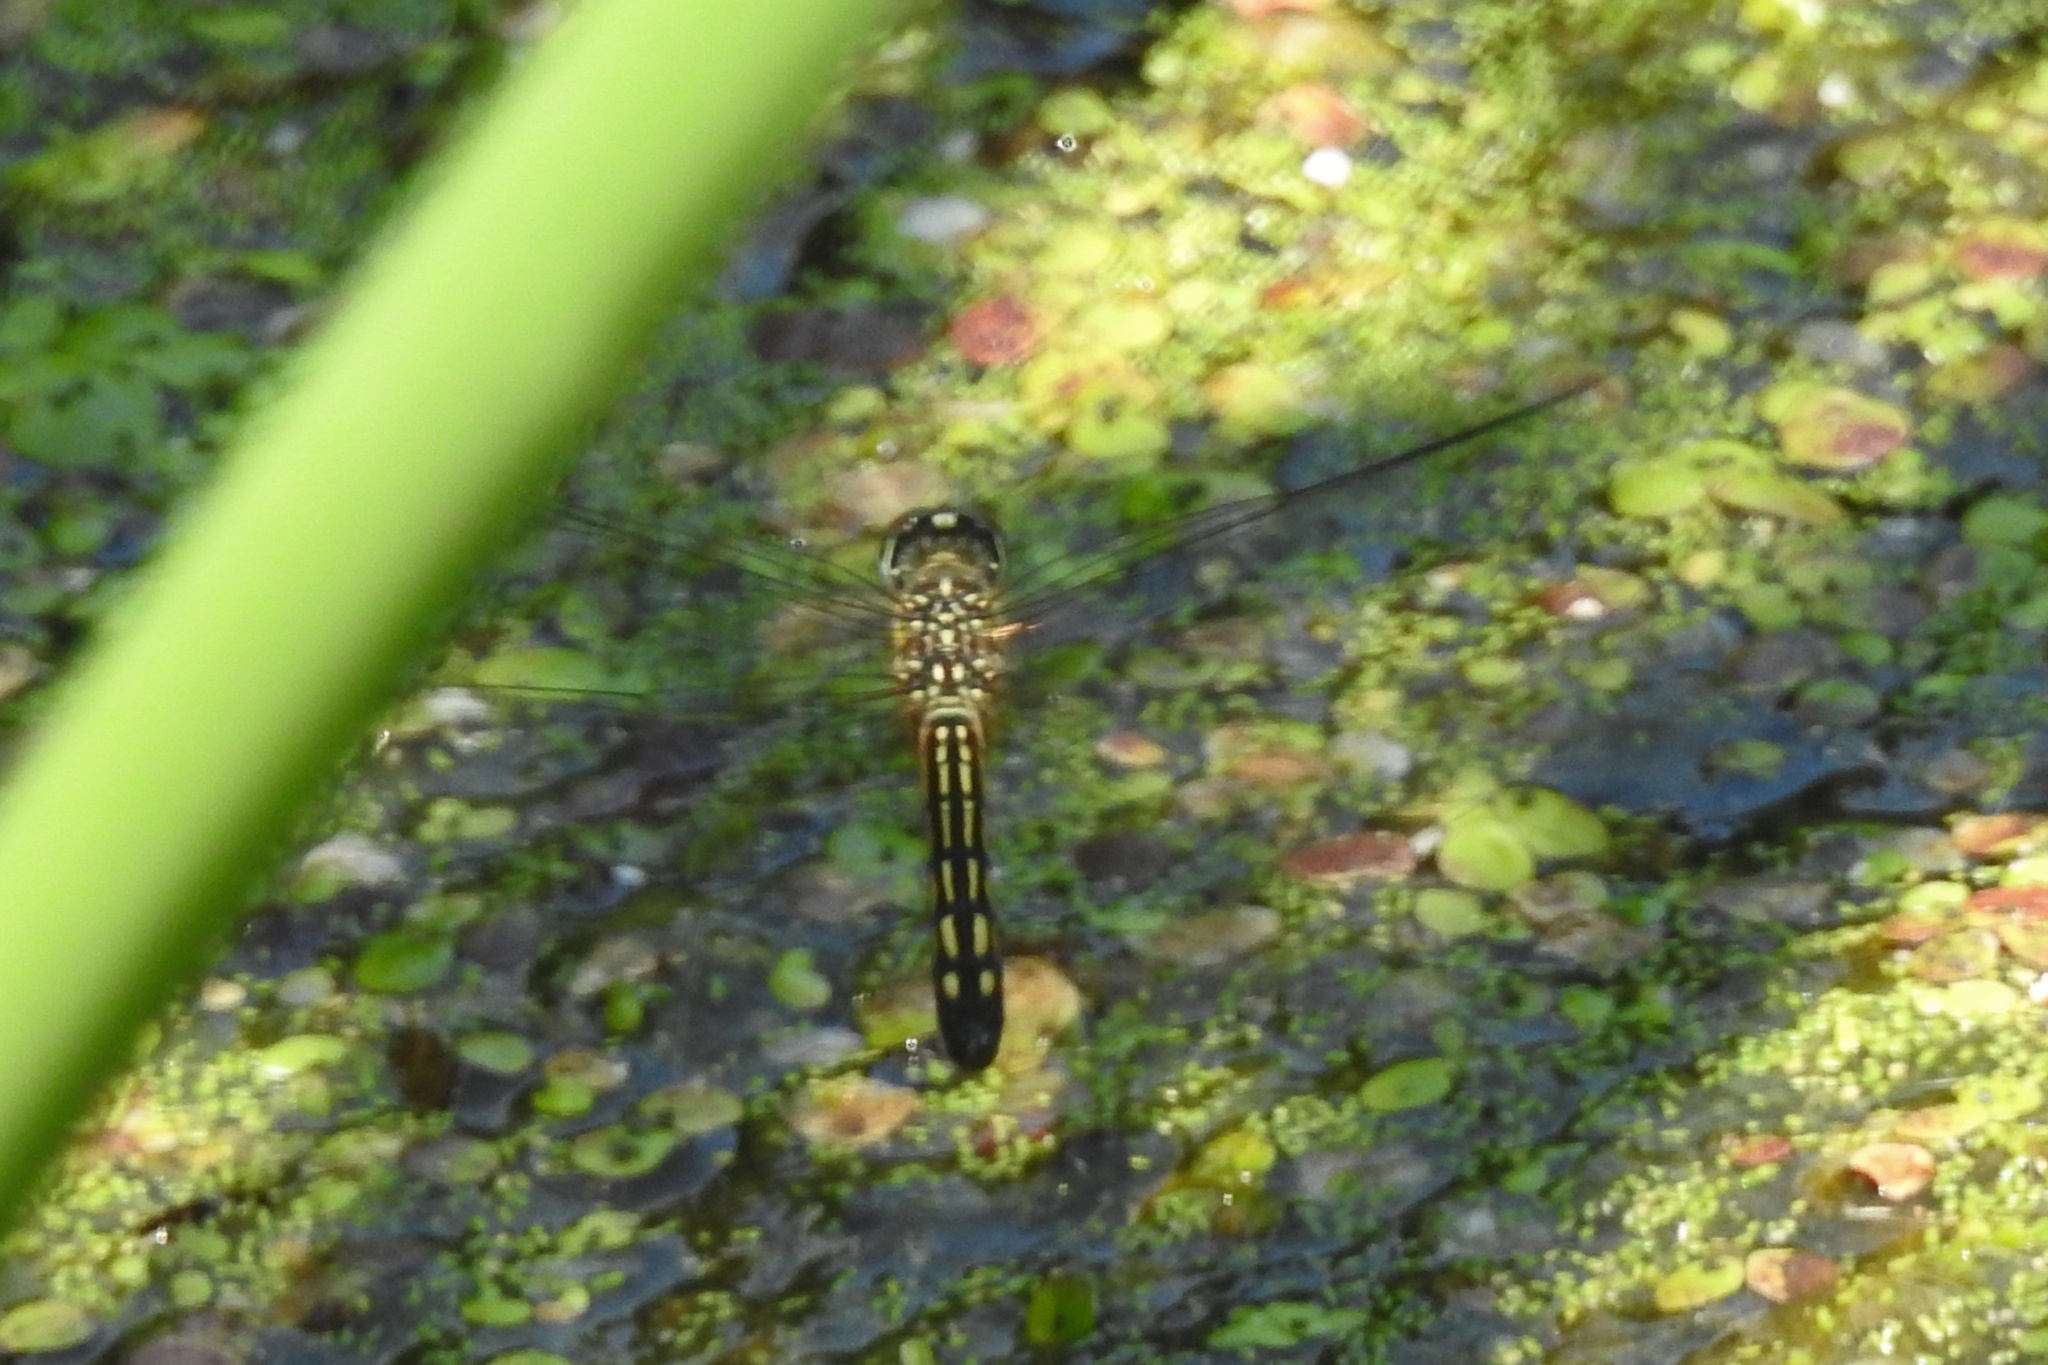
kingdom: Animalia
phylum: Arthropoda
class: Insecta
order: Odonata
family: Libellulidae
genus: Pachydiplax
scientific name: Pachydiplax longipennis
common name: Blue dasher
